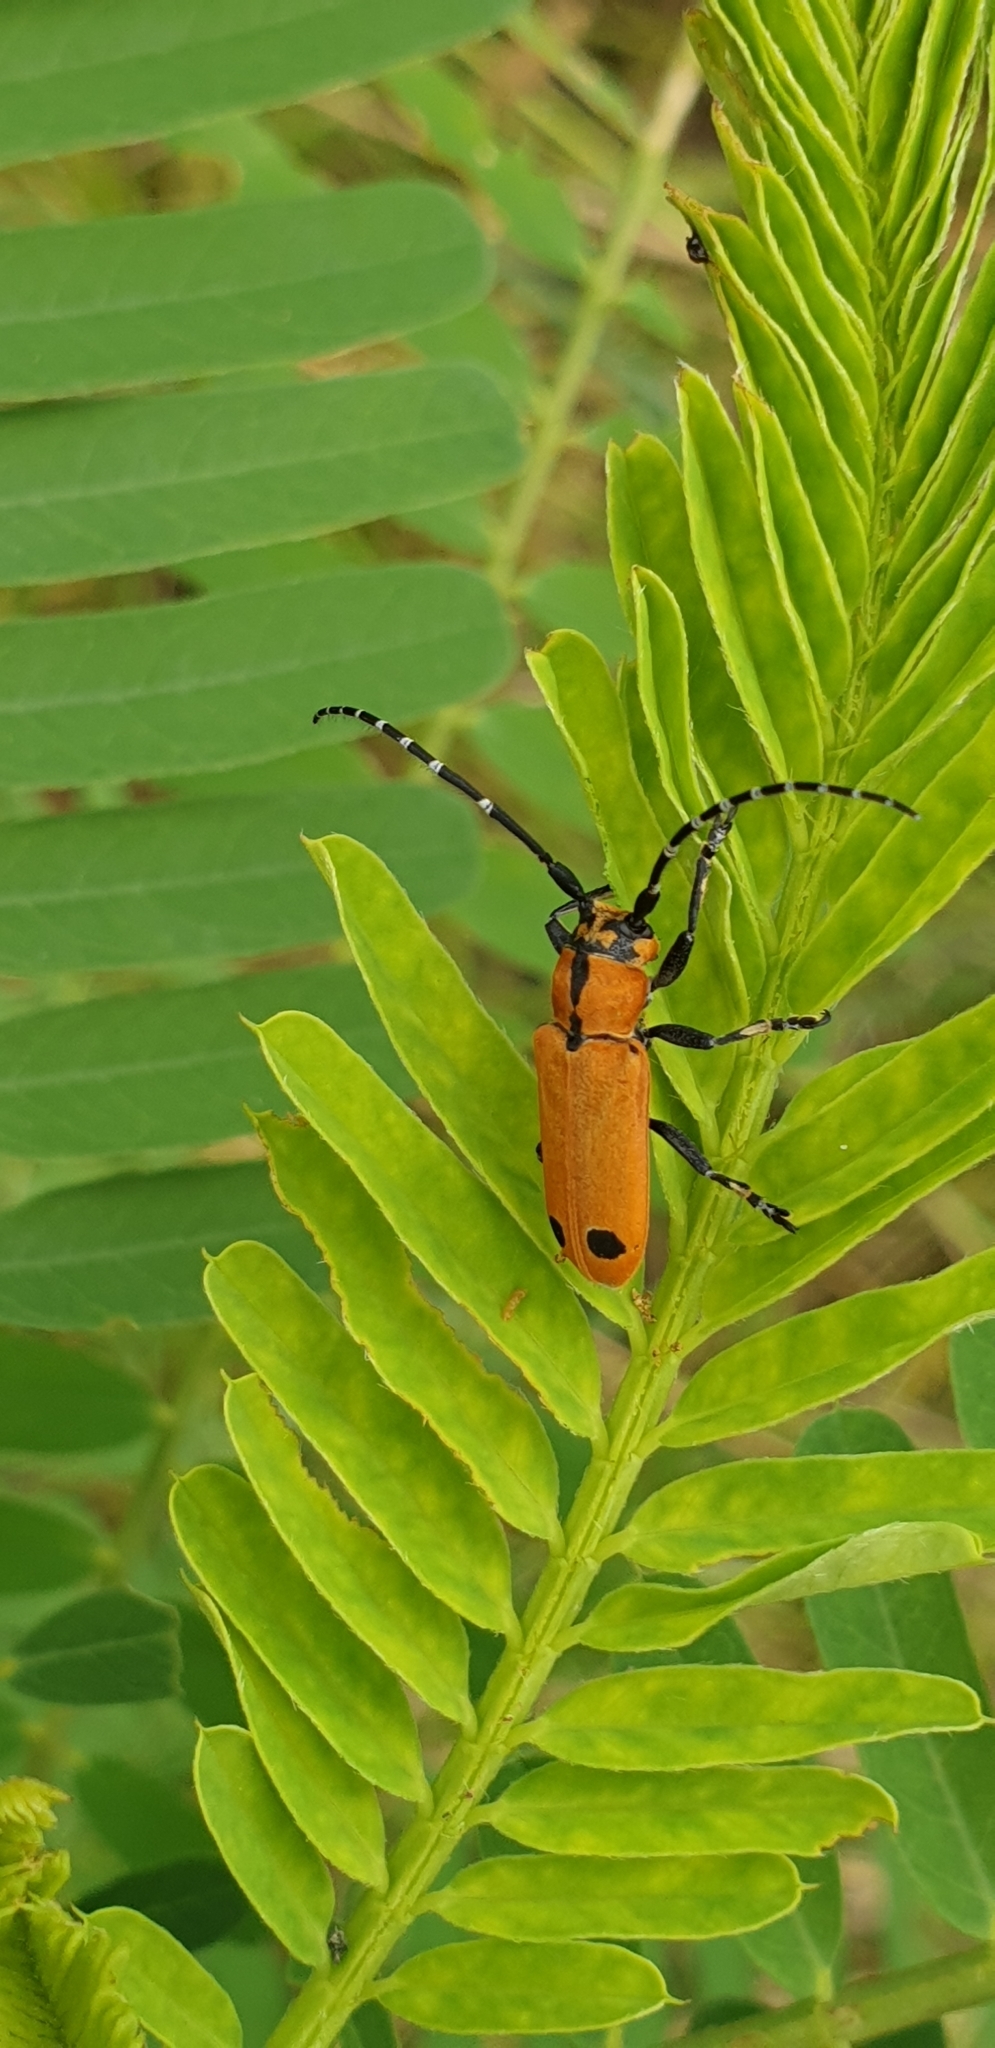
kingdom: Animalia
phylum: Arthropoda
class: Insecta
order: Coleoptera
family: Cerambycidae
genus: Rhytiphora
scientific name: Rhytiphora diva
